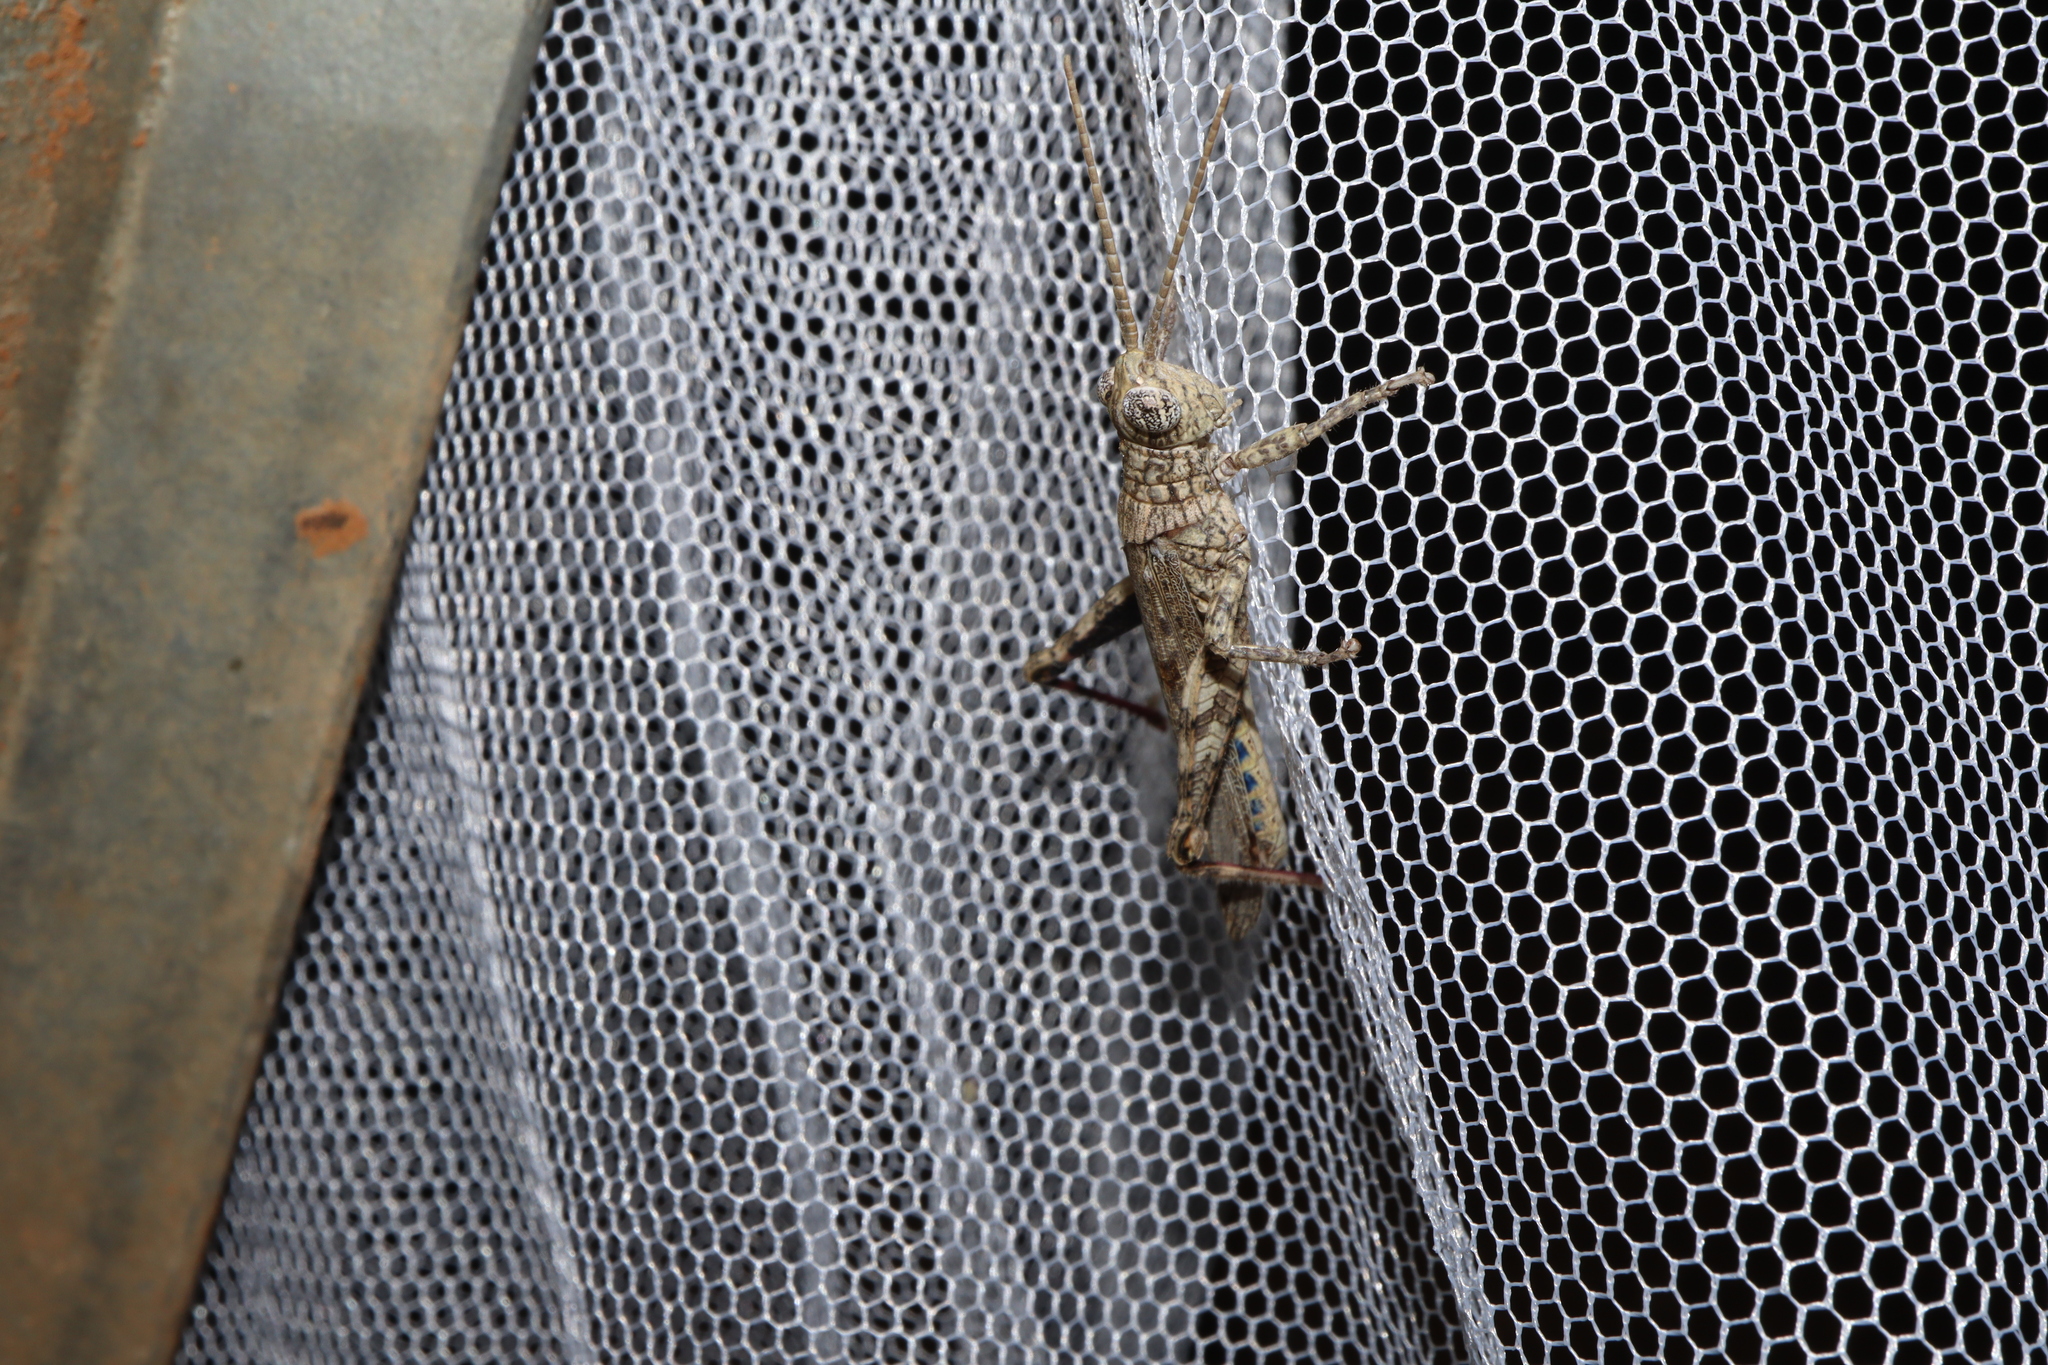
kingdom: Animalia
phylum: Arthropoda
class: Insecta
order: Orthoptera
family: Acrididae
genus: Coryphistes
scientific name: Coryphistes interioris
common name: Hairy coryphistes
